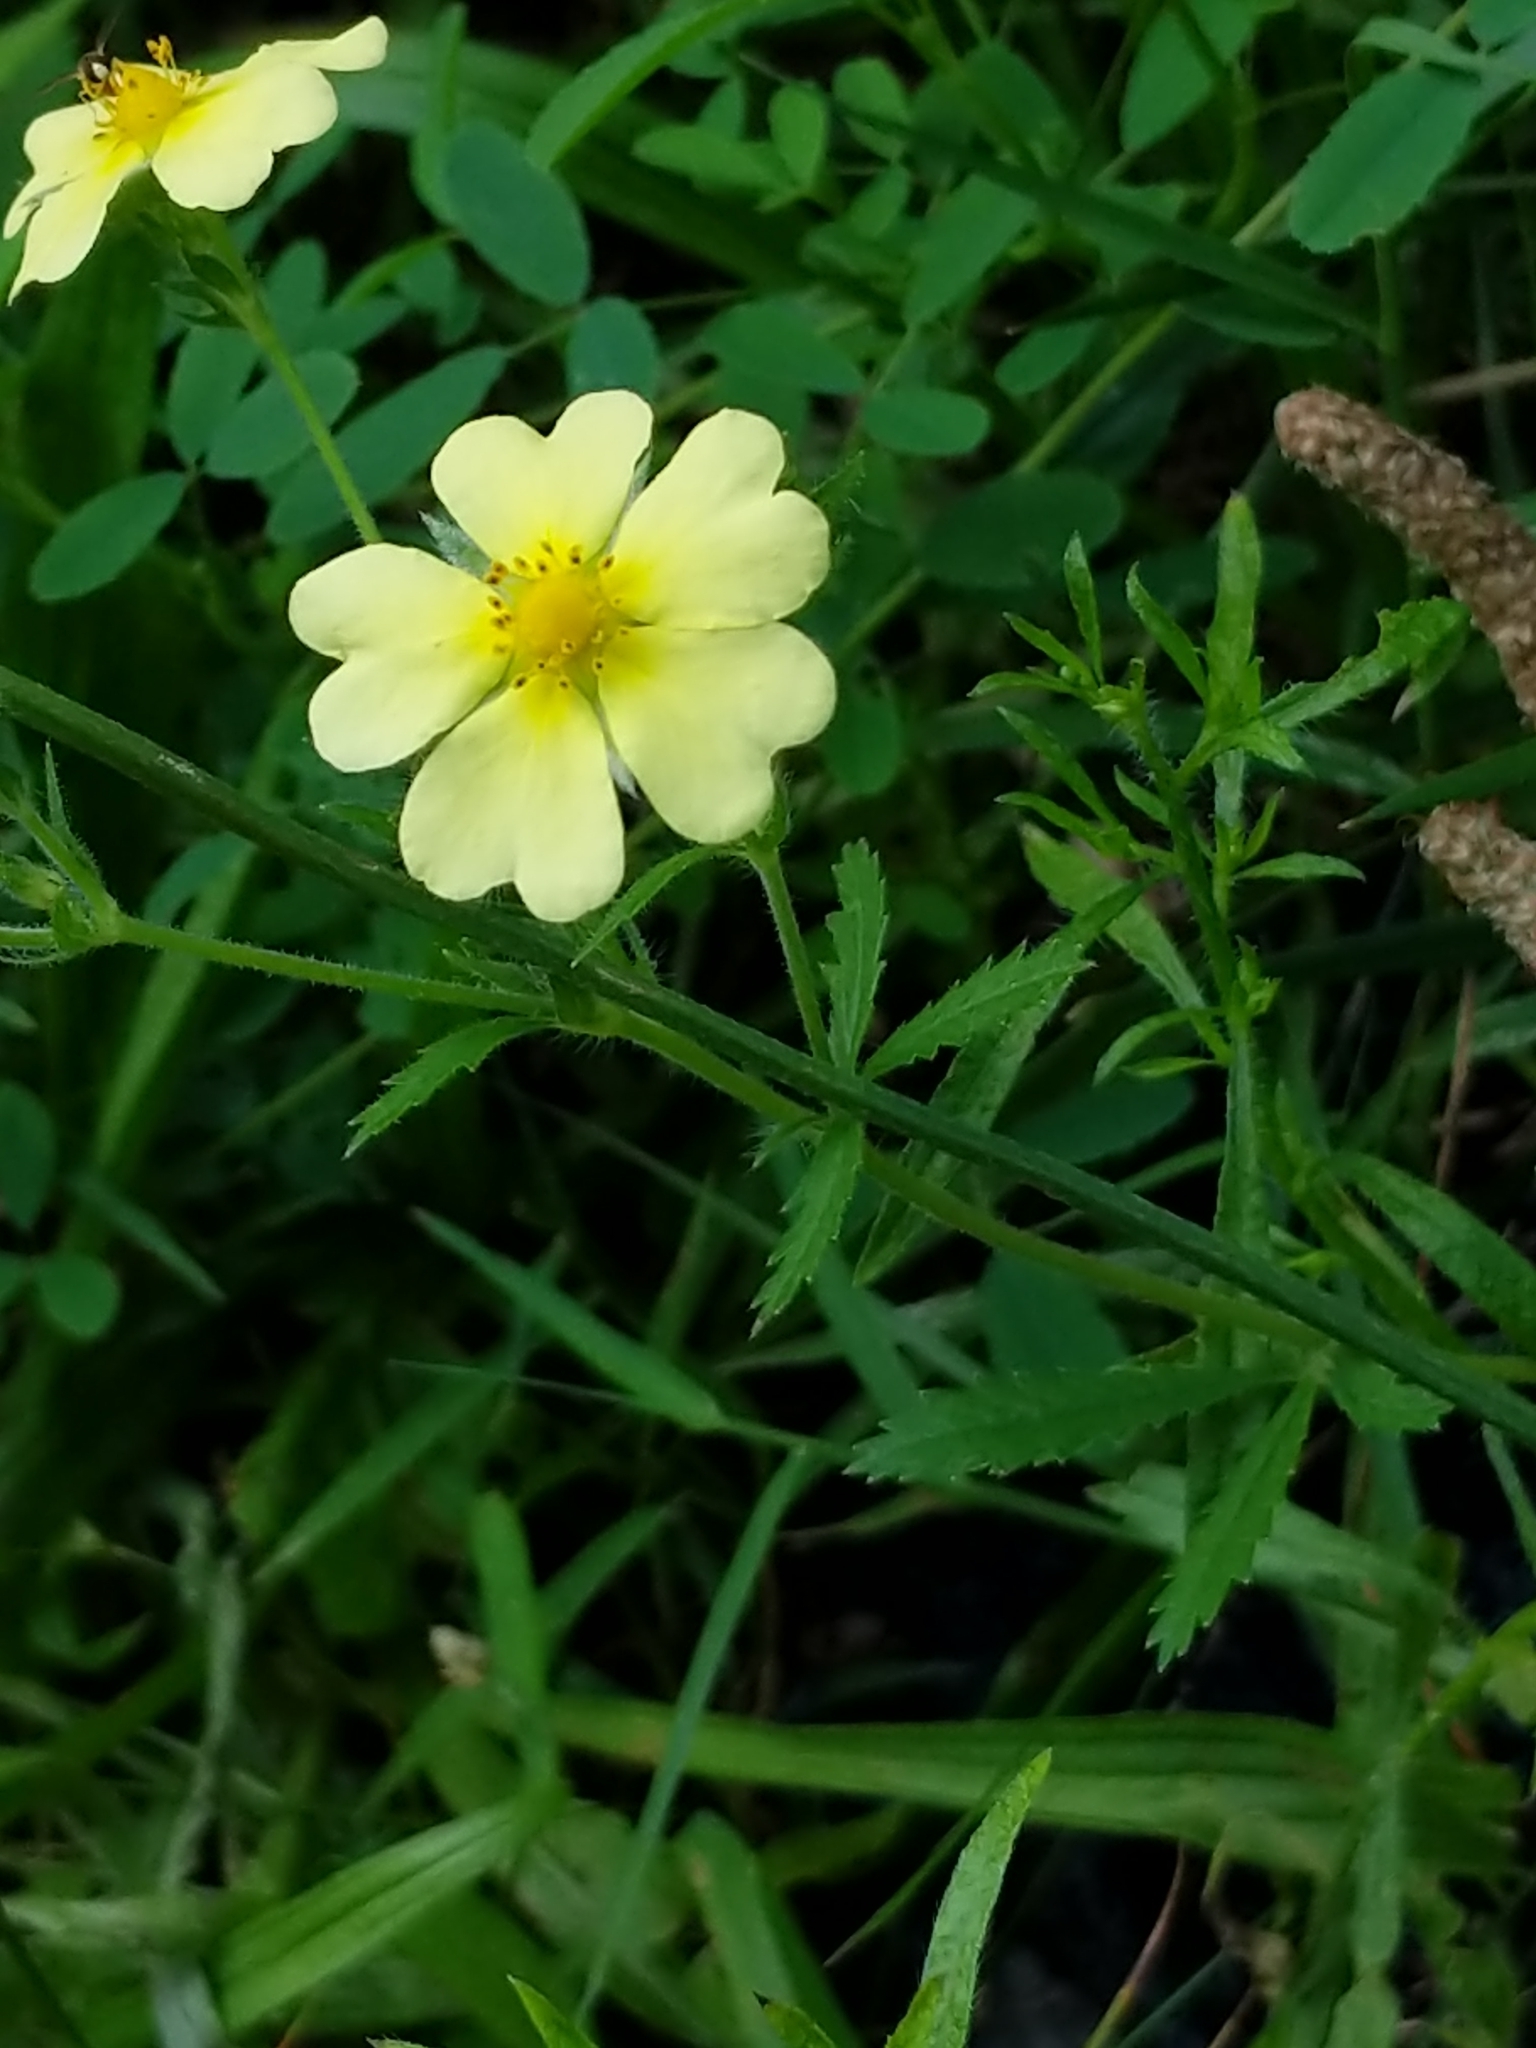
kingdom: Plantae
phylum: Tracheophyta
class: Magnoliopsida
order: Rosales
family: Rosaceae
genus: Potentilla
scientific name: Potentilla recta
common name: Sulphur cinquefoil
